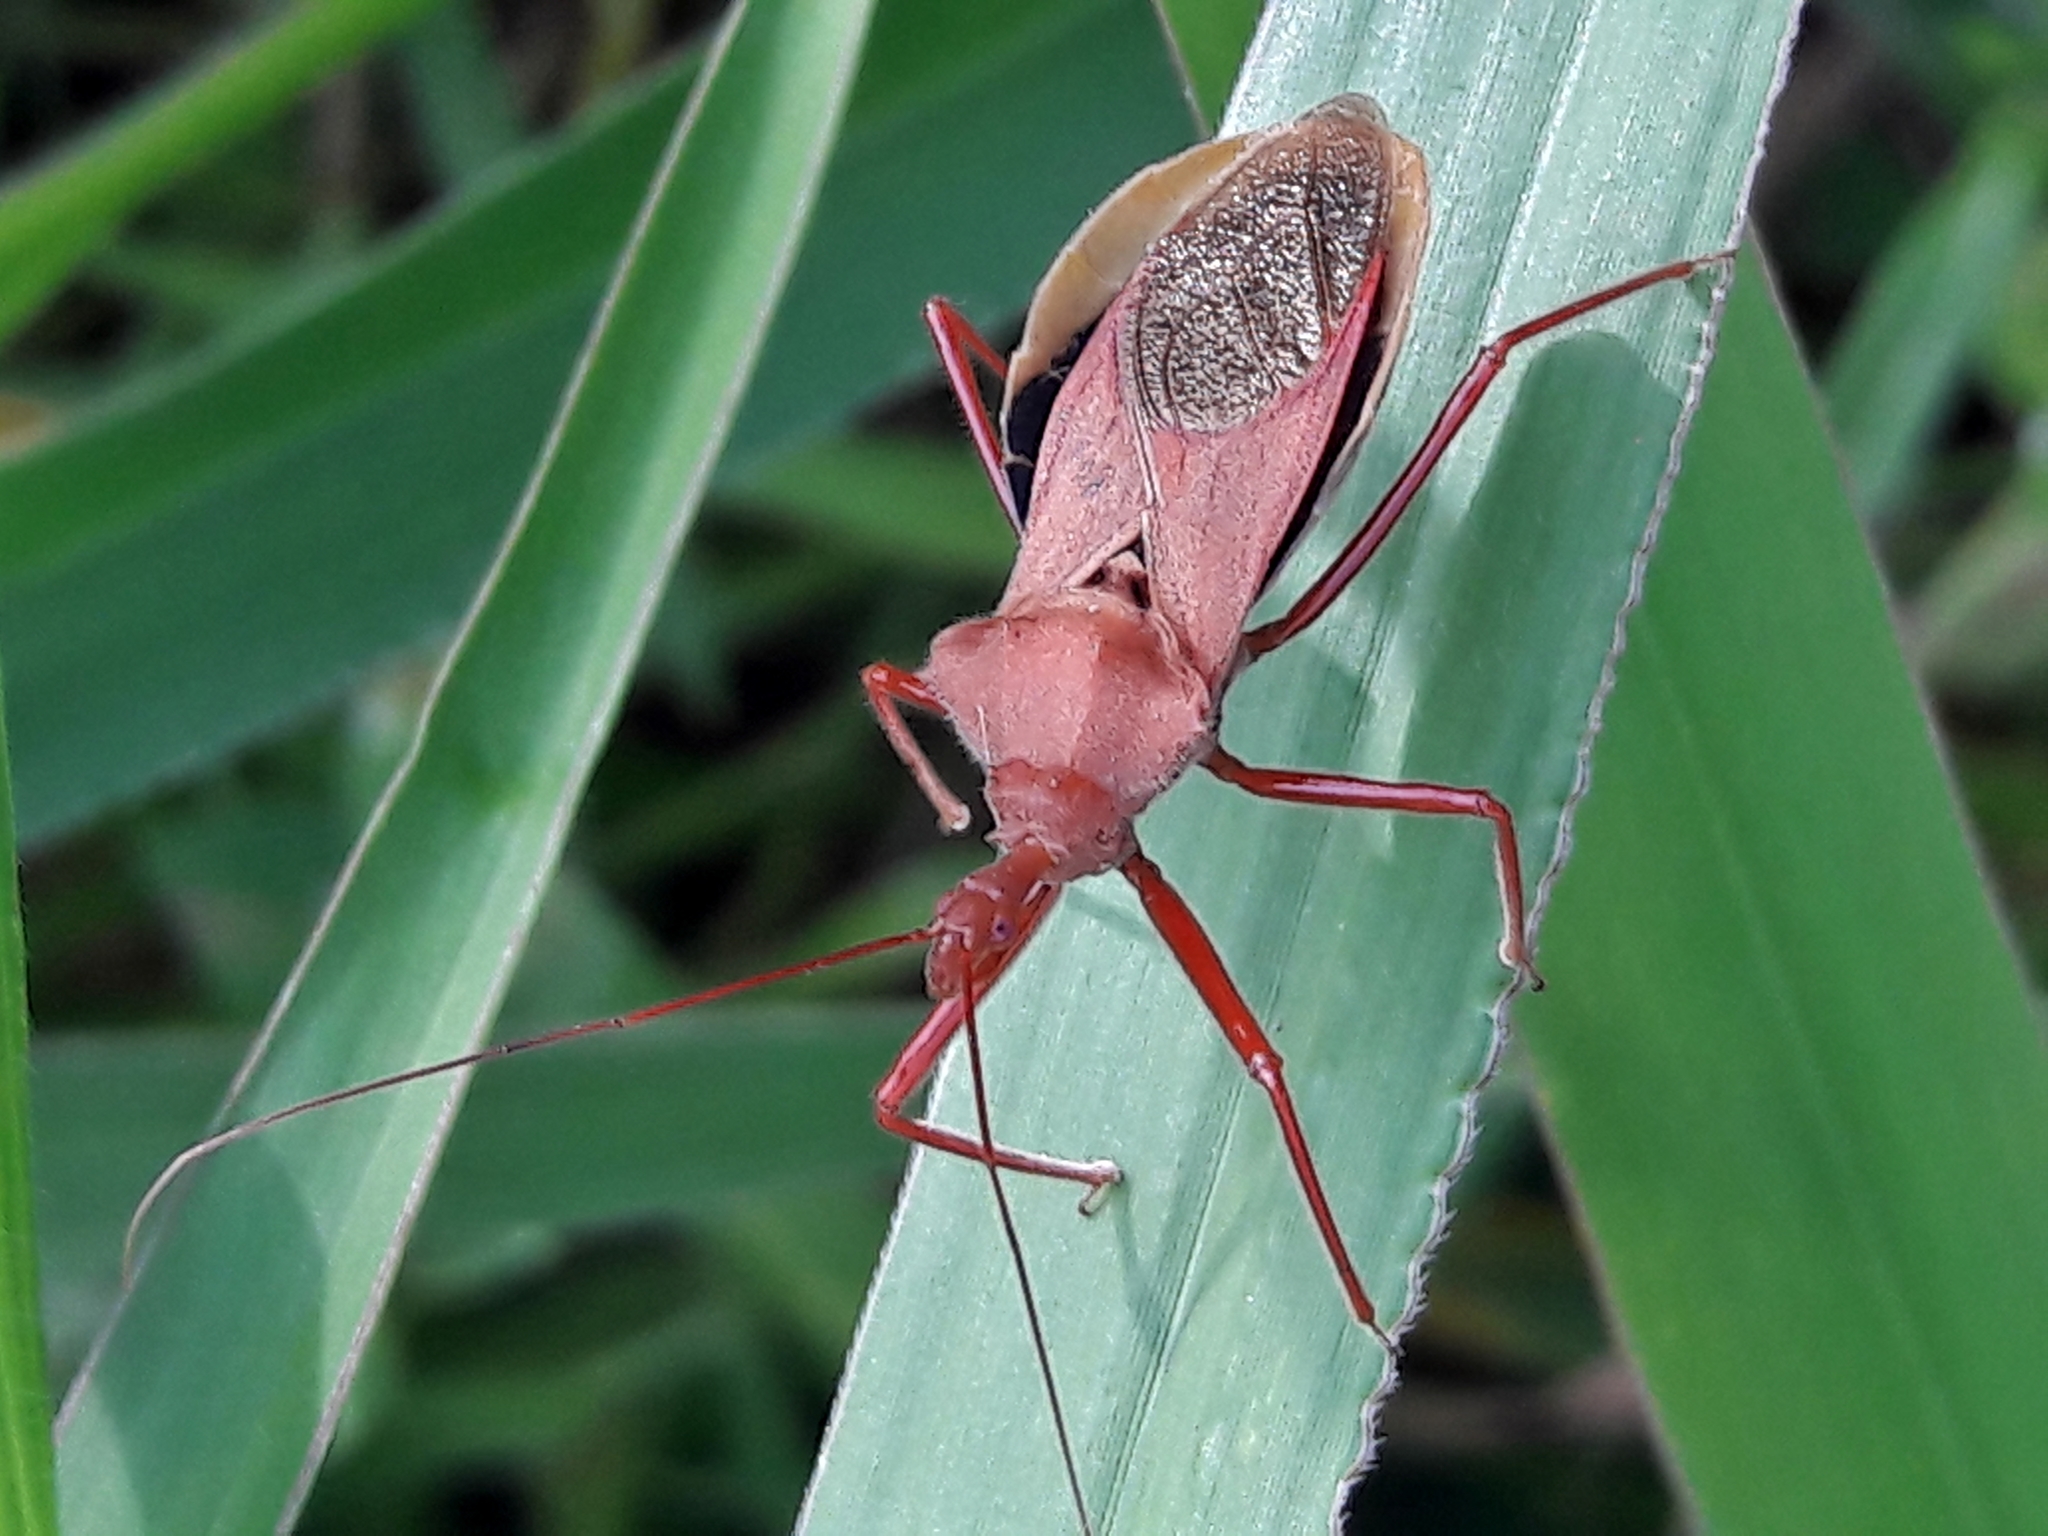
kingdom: Animalia
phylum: Arthropoda
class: Insecta
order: Hemiptera
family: Reduviidae
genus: Montina
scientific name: Montina confusa
